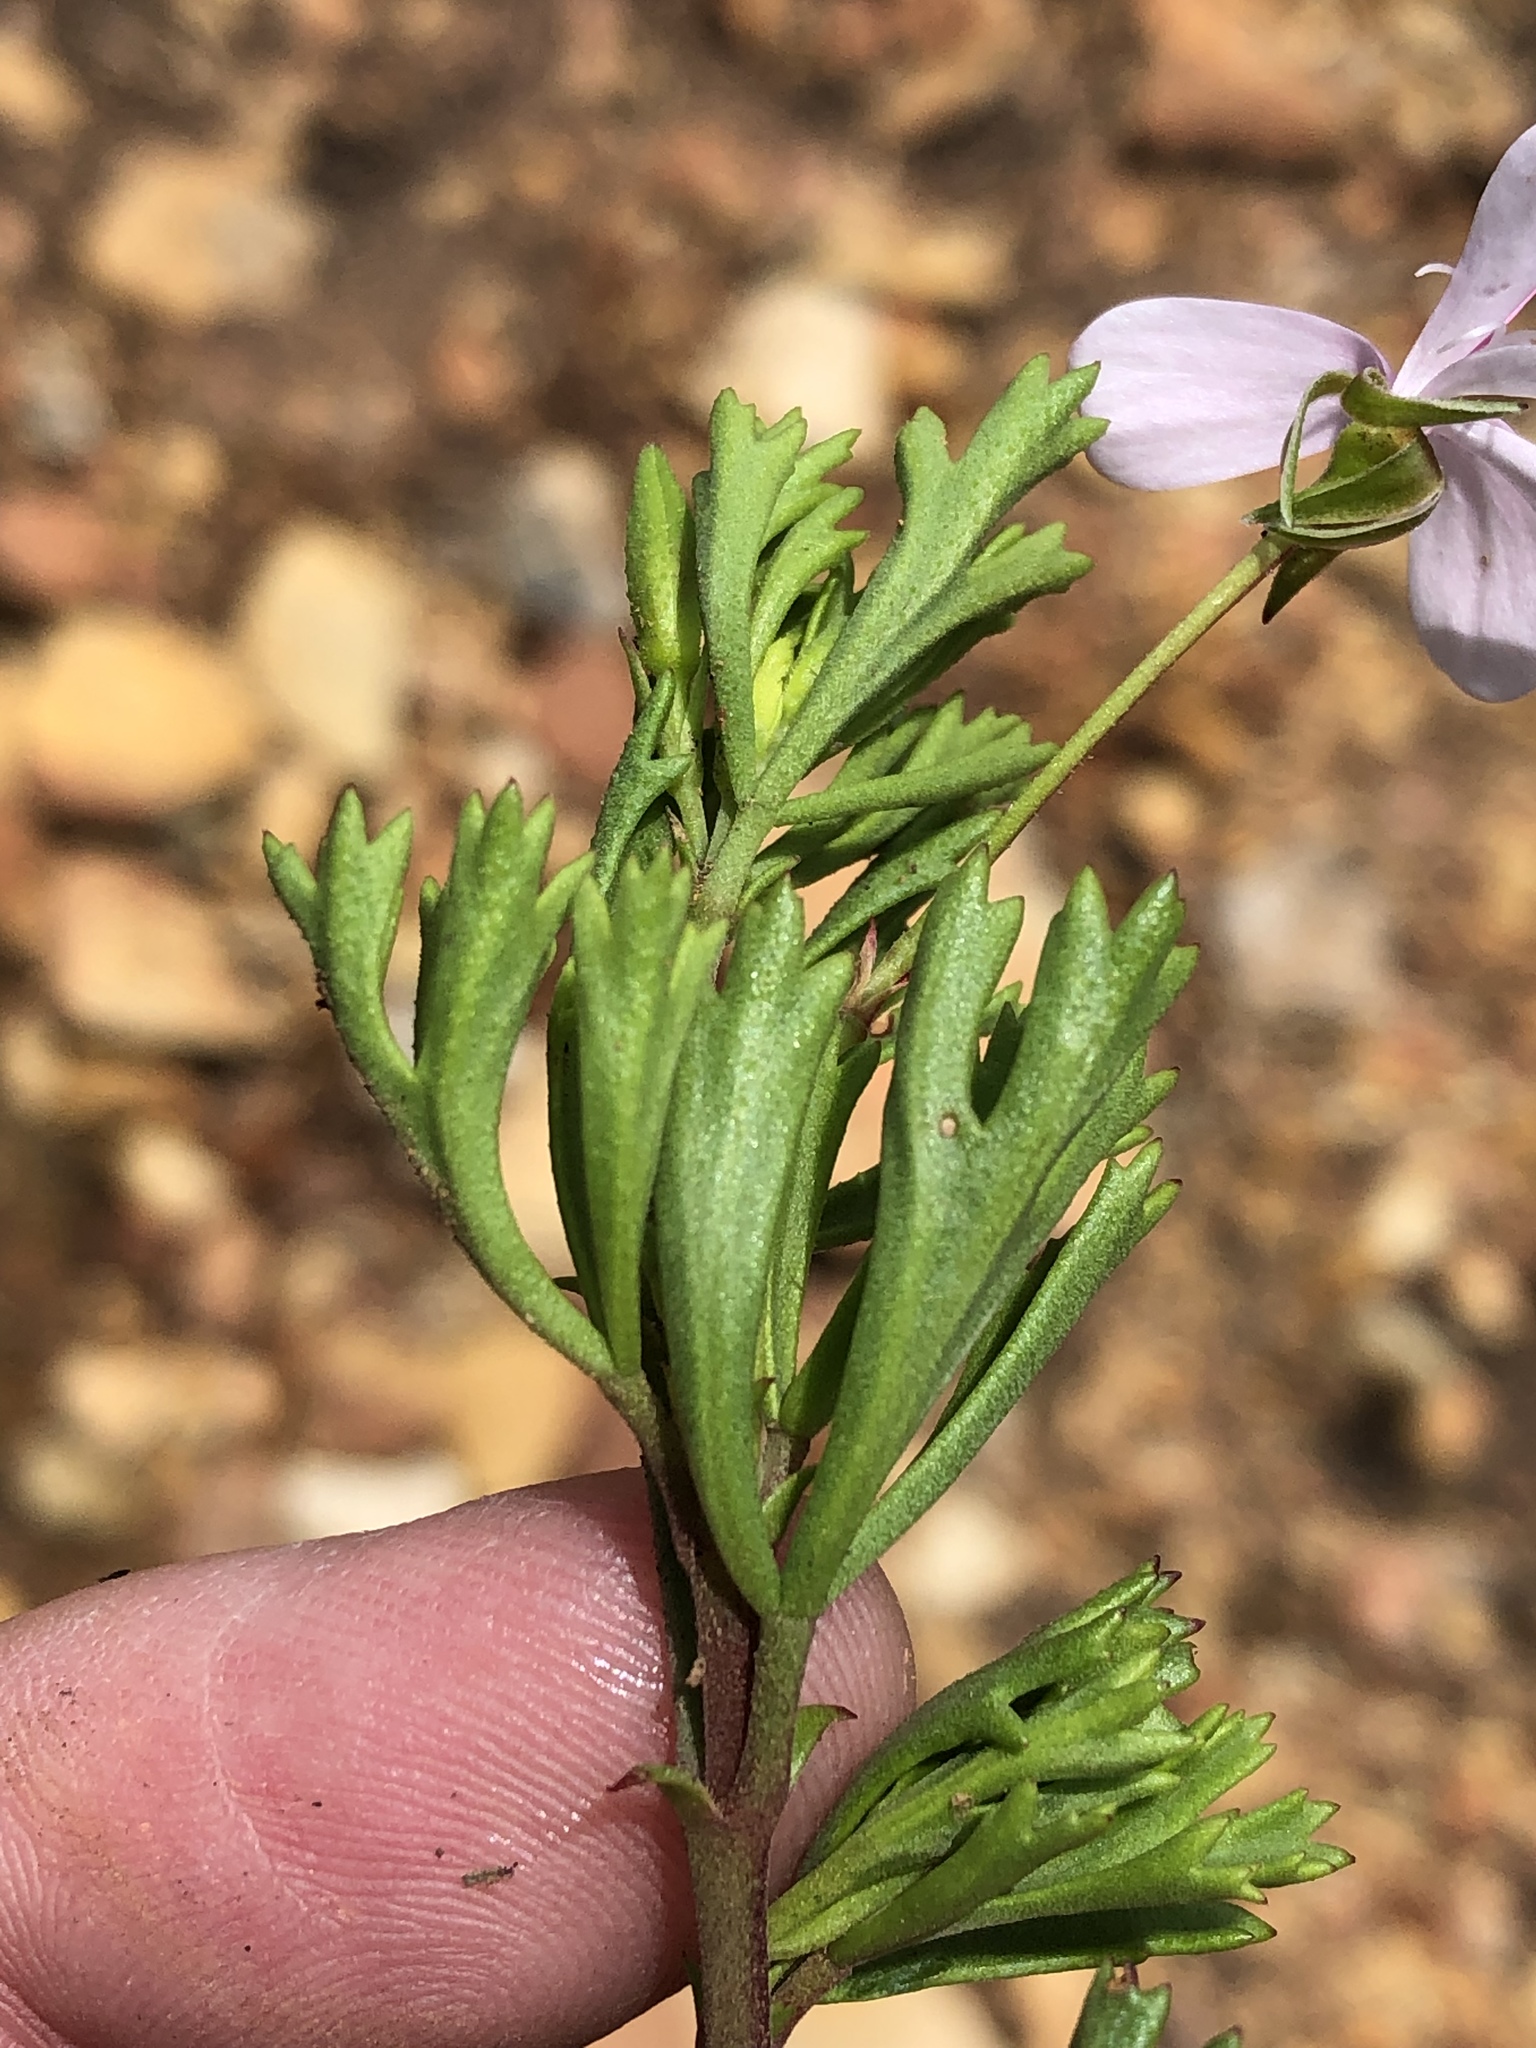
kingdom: Plantae
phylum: Tracheophyta
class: Magnoliopsida
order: Geraniales
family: Geraniaceae
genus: Pelargonium
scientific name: Pelargonium ternatum
